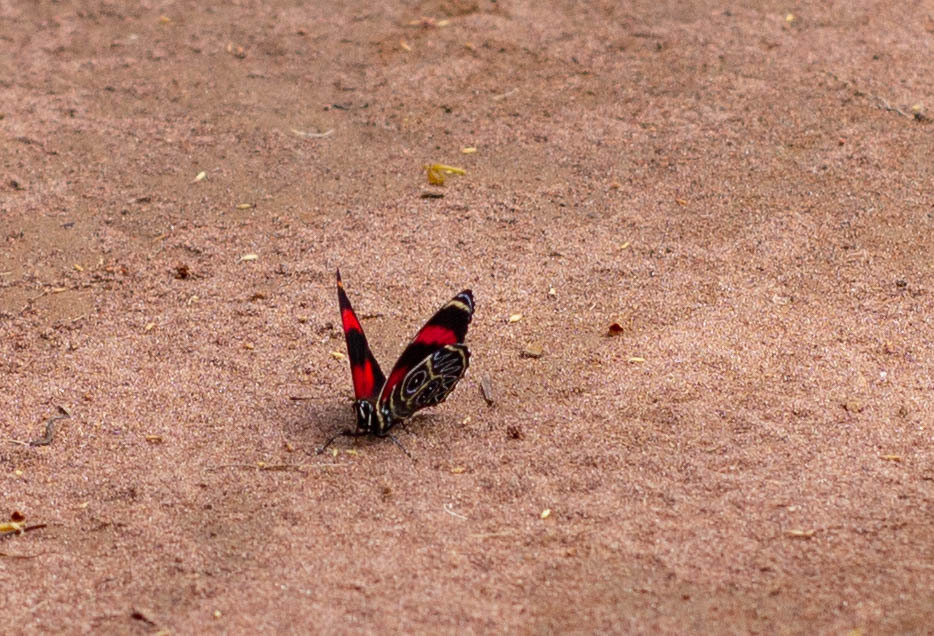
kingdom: Animalia
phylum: Arthropoda
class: Insecta
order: Lepidoptera
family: Nymphalidae
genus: Catagramma
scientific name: Catagramma Callicore sorana
